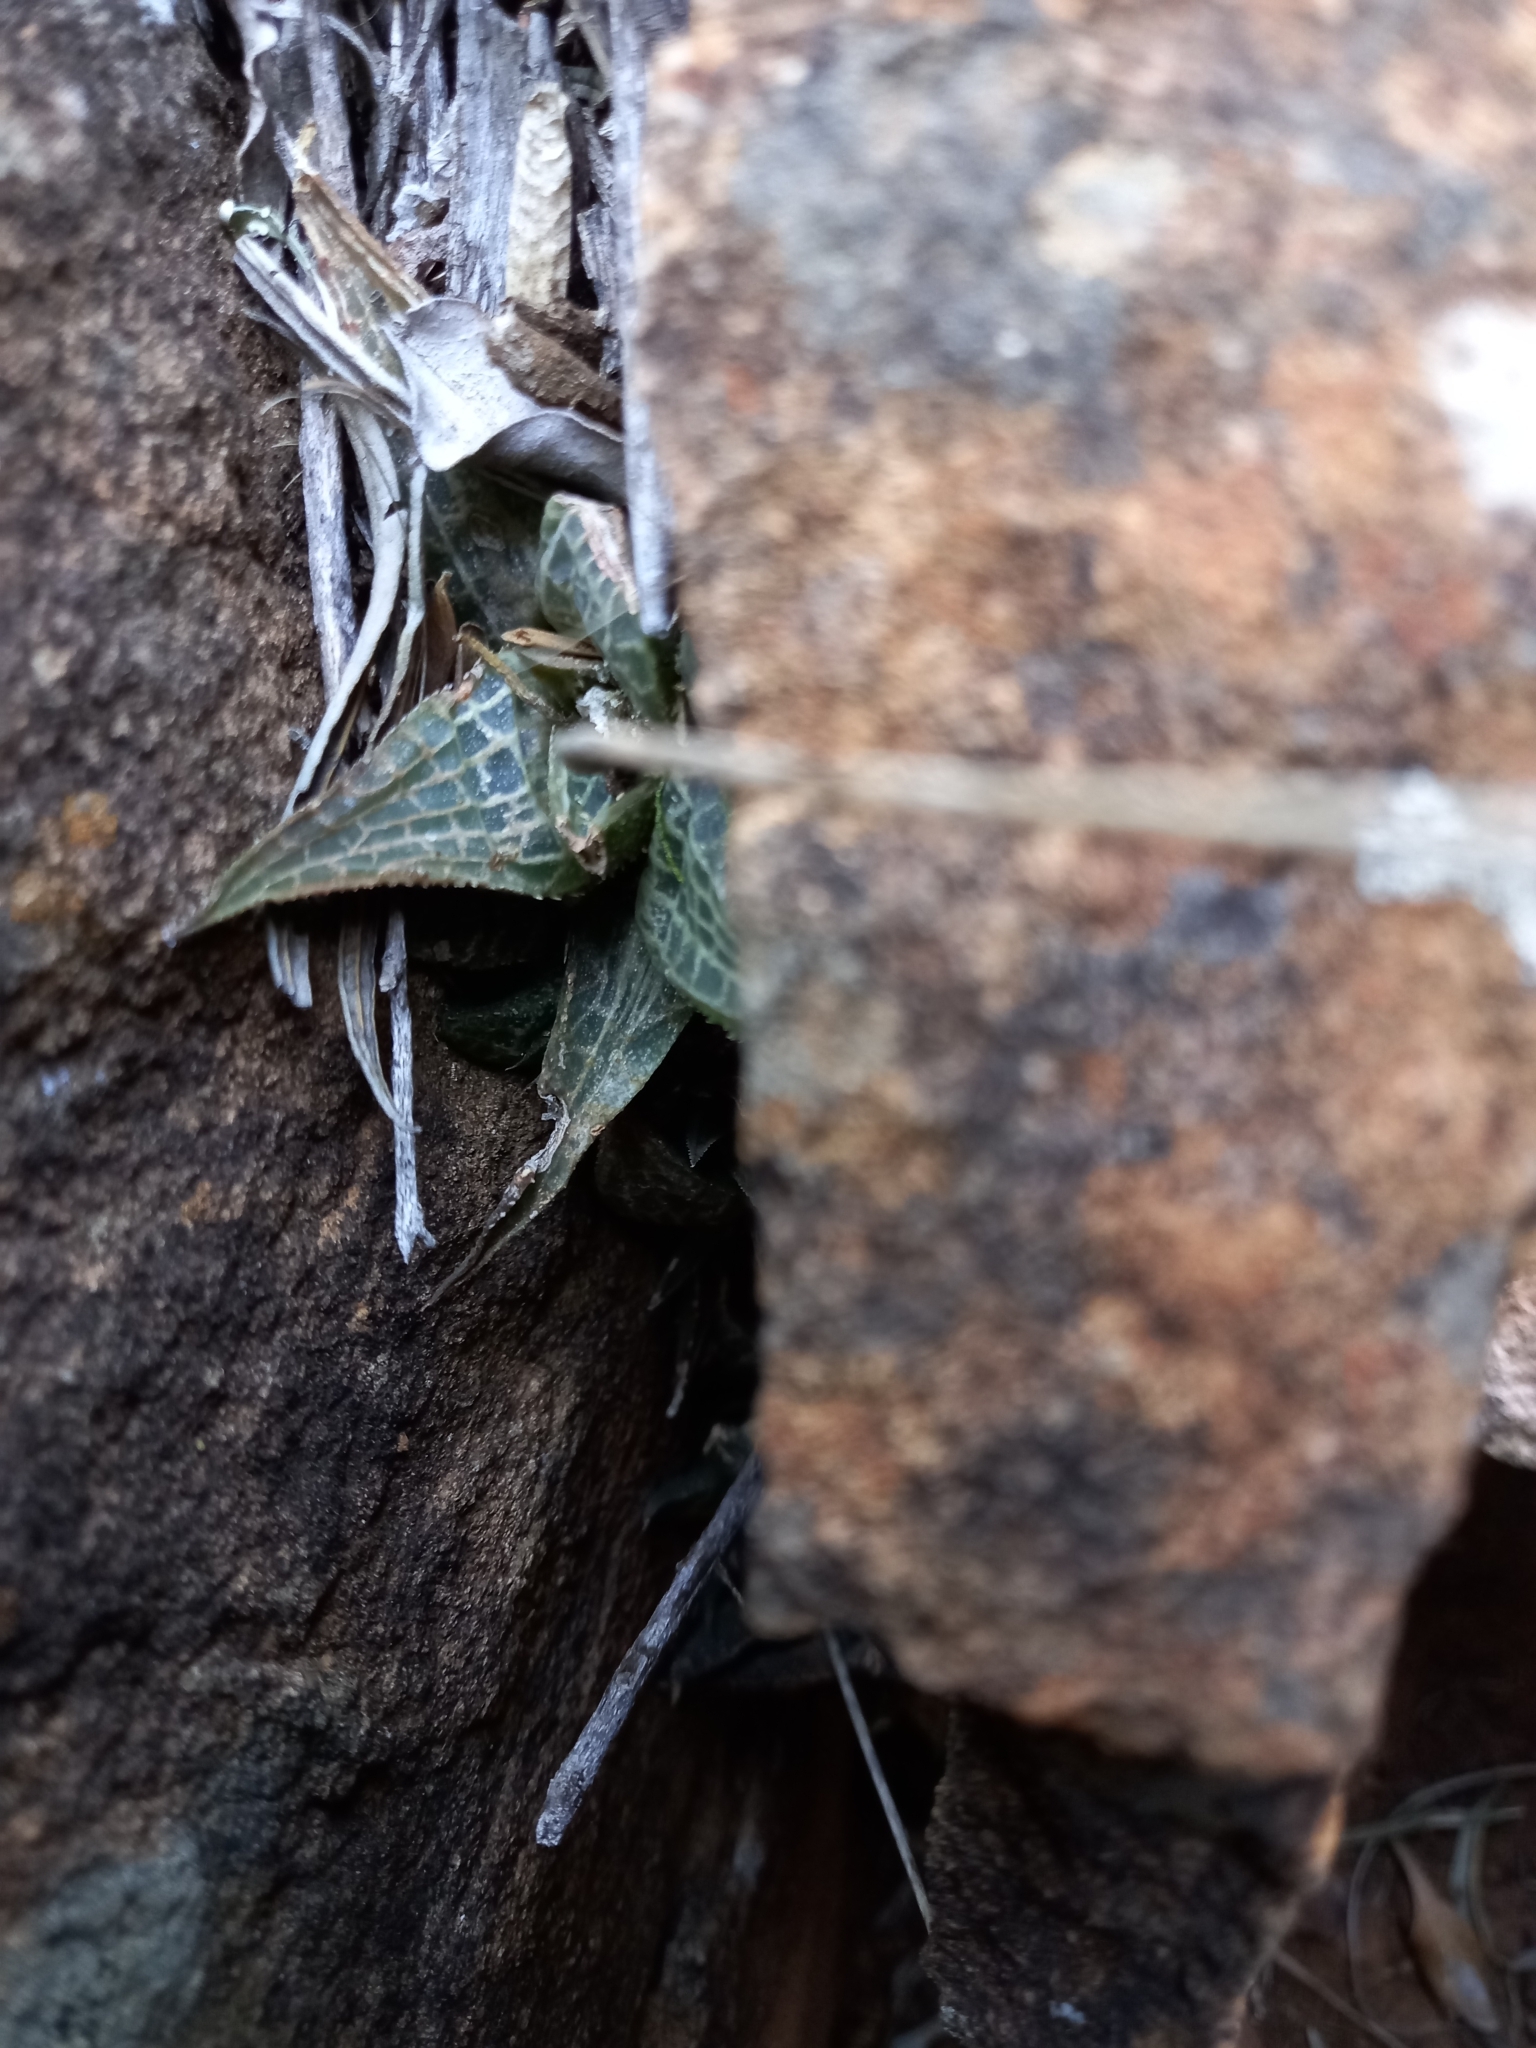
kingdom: Plantae
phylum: Tracheophyta
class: Liliopsida
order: Asparagales
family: Asphodelaceae
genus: Haworthiopsis
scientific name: Haworthiopsis tessellata
